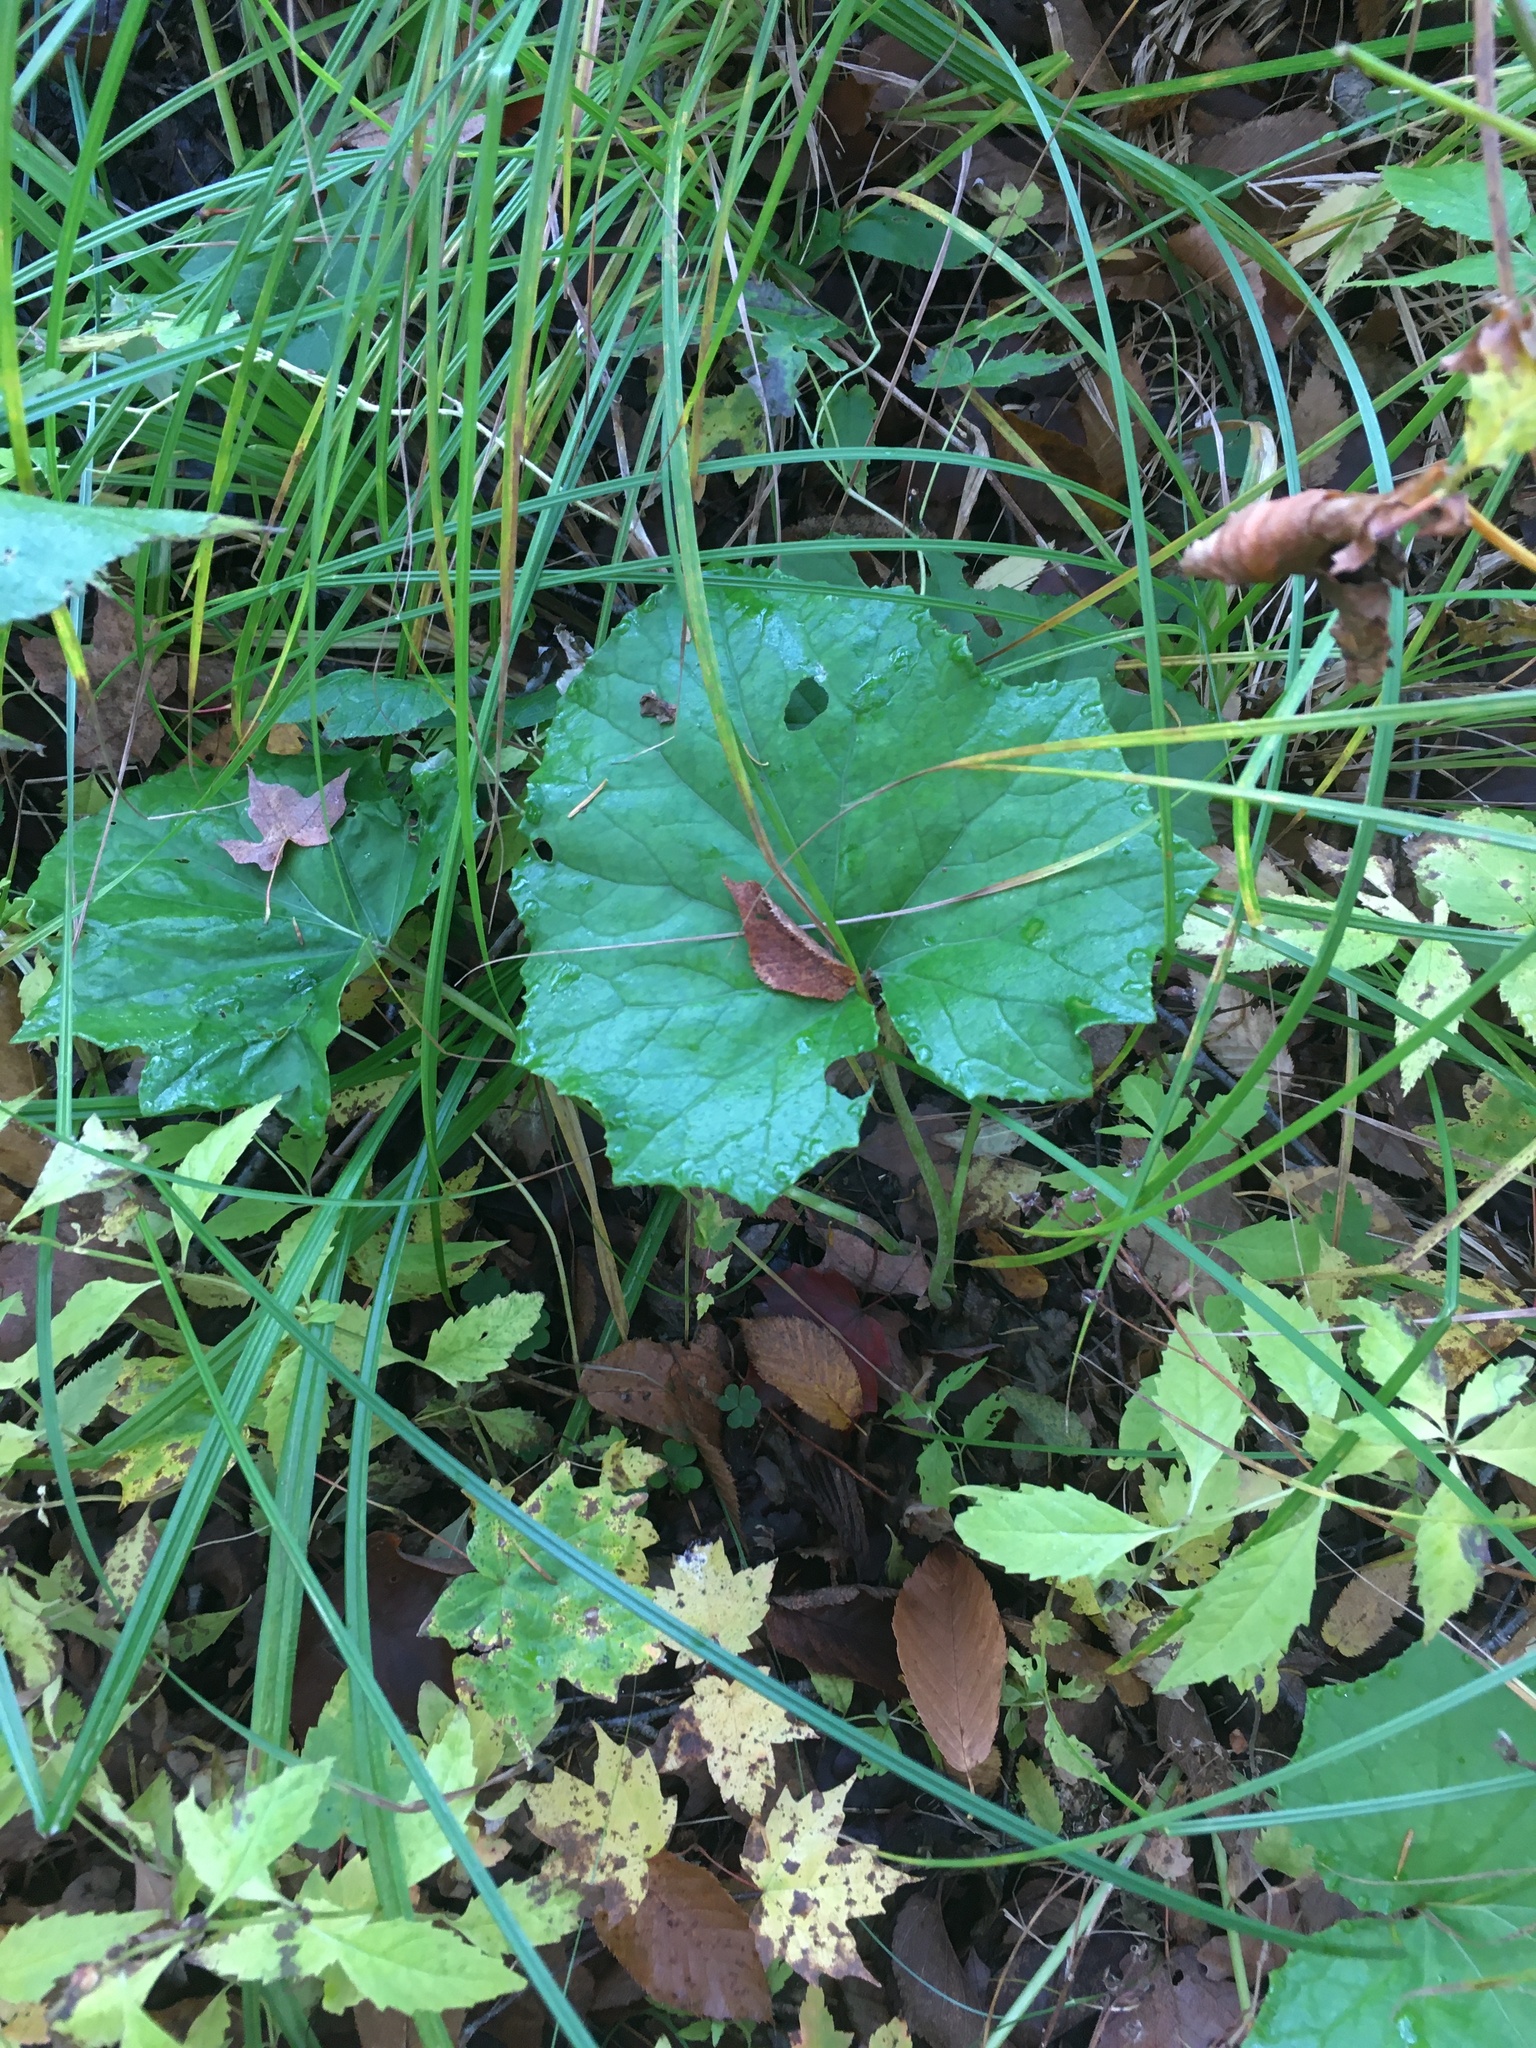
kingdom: Plantae
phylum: Tracheophyta
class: Magnoliopsida
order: Asterales
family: Asteraceae
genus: Tussilago
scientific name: Tussilago farfara
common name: Coltsfoot
